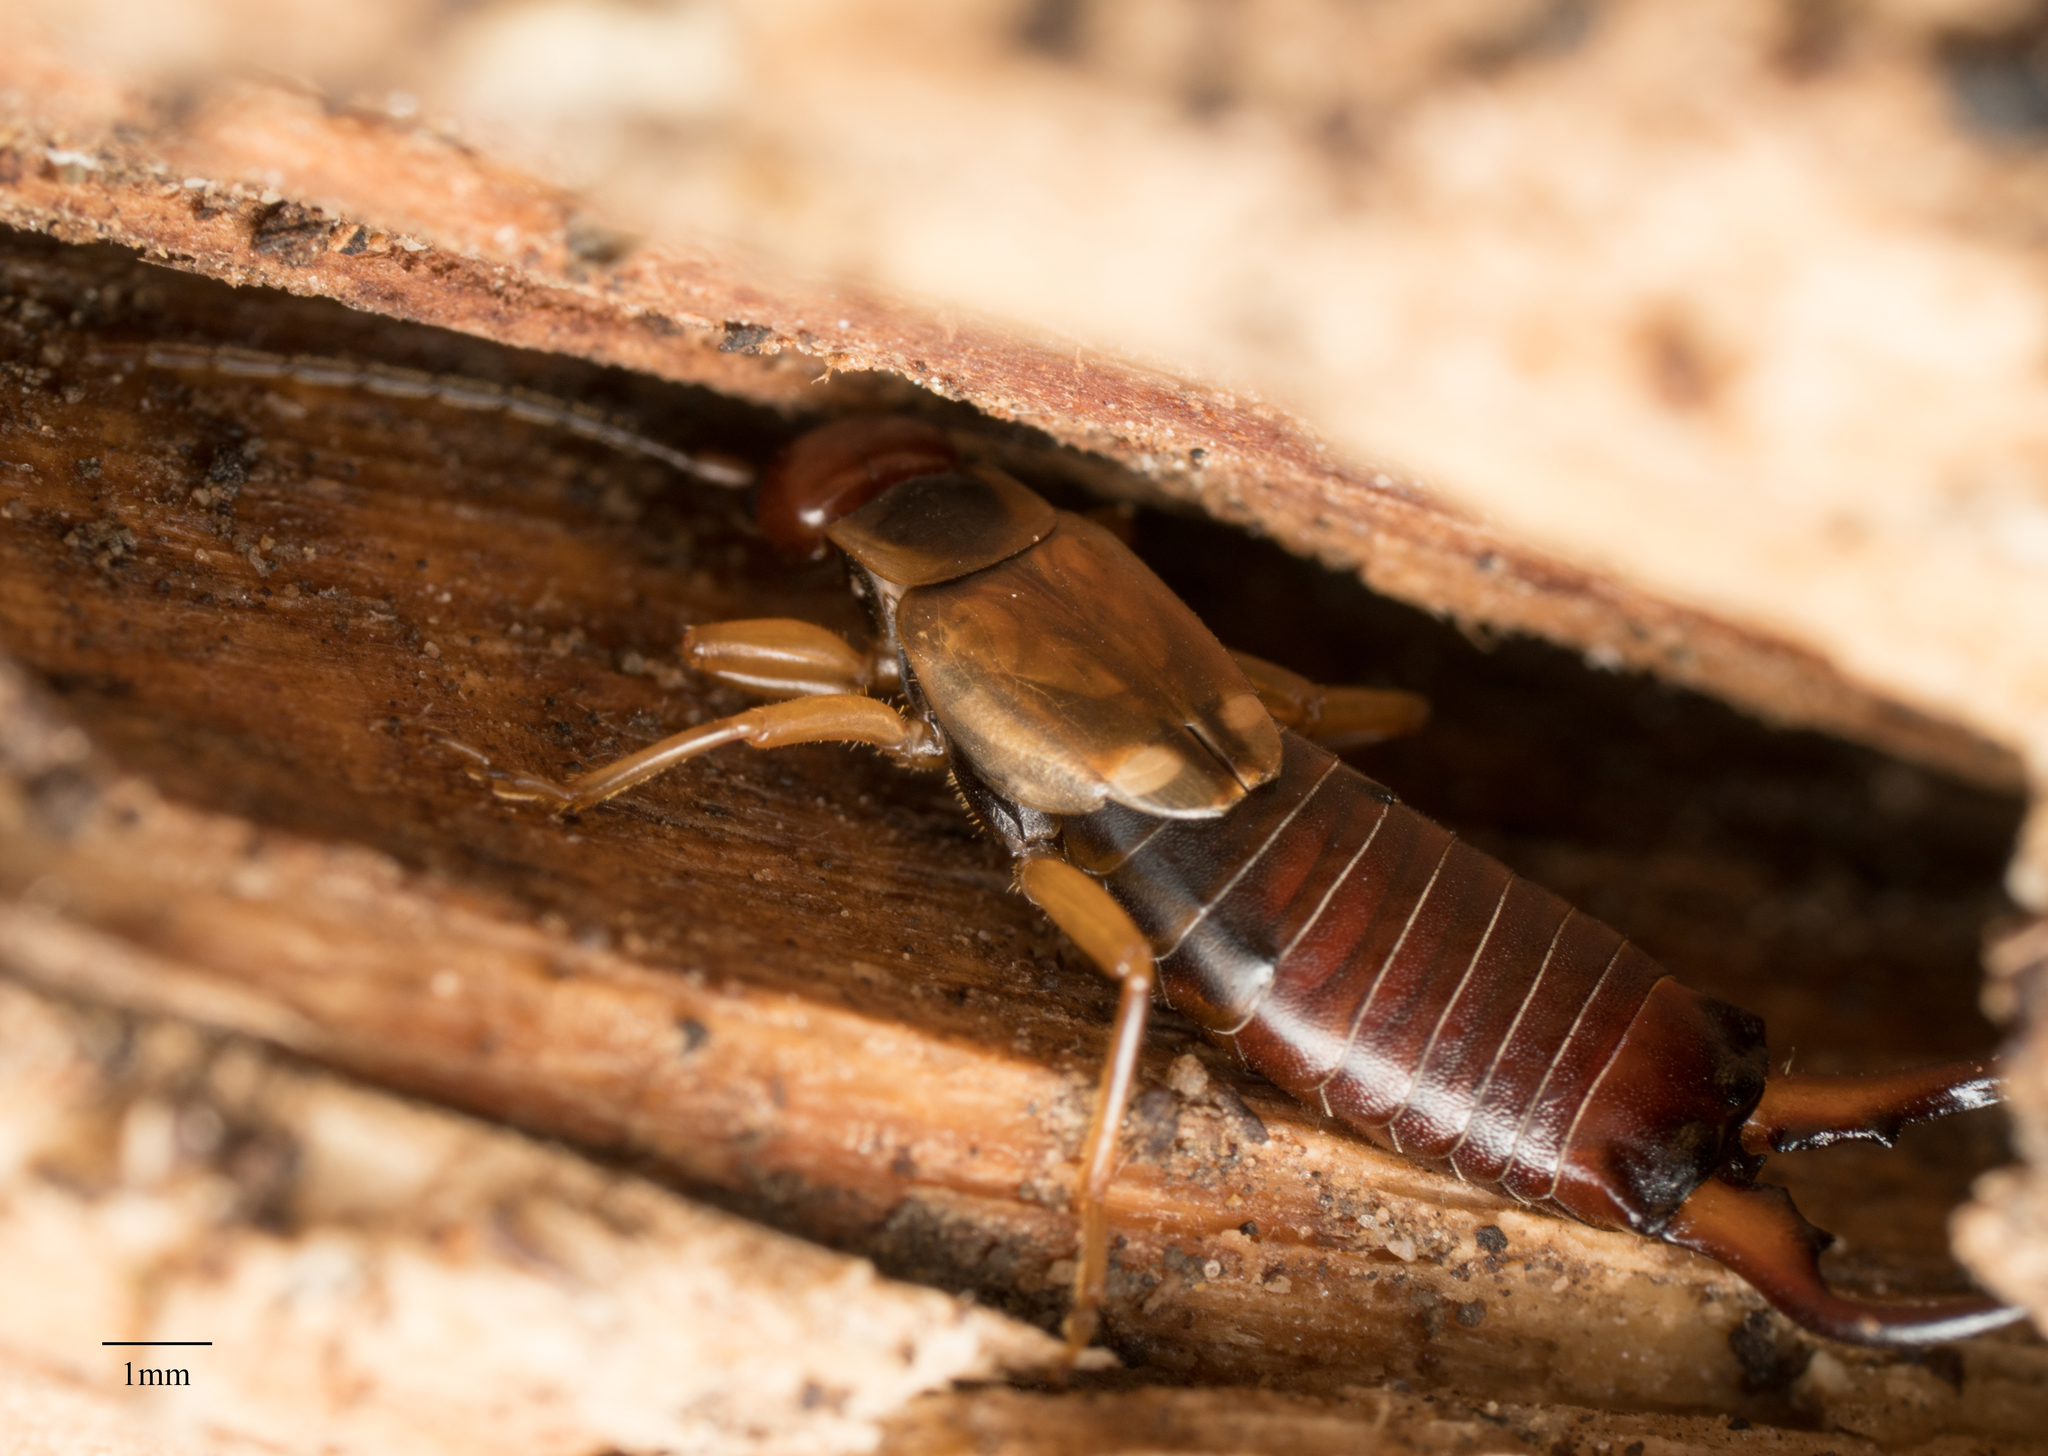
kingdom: Animalia
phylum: Arthropoda
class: Insecta
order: Dermaptera
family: Forficulidae
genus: Forficula
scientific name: Forficula
